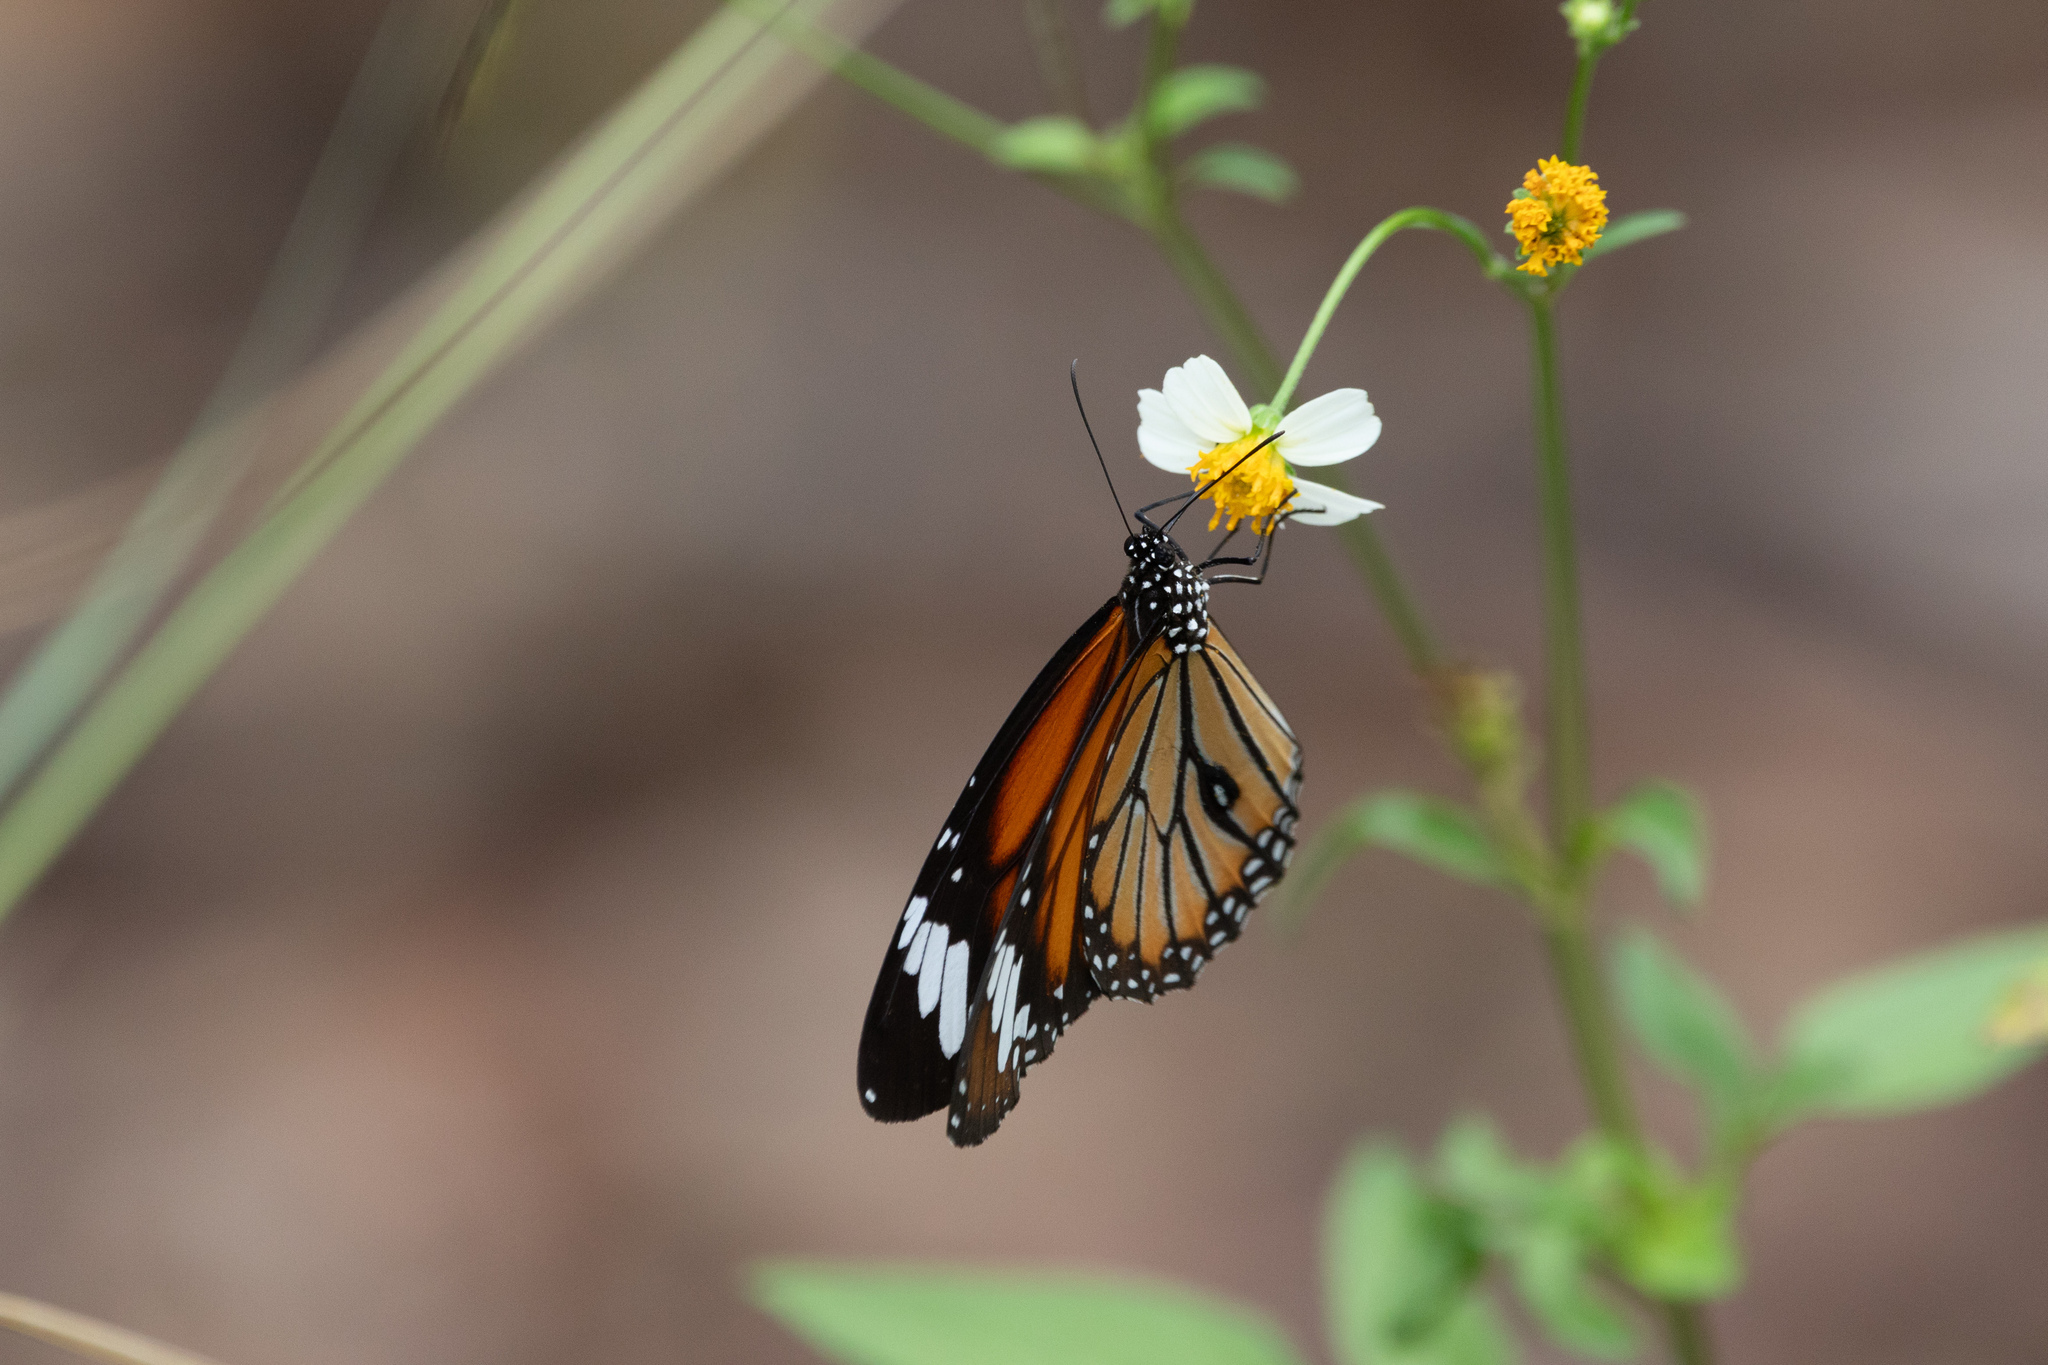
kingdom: Animalia
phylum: Arthropoda
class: Insecta
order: Lepidoptera
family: Nymphalidae
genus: Danaus
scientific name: Danaus genutia
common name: Common tiger butterfly
